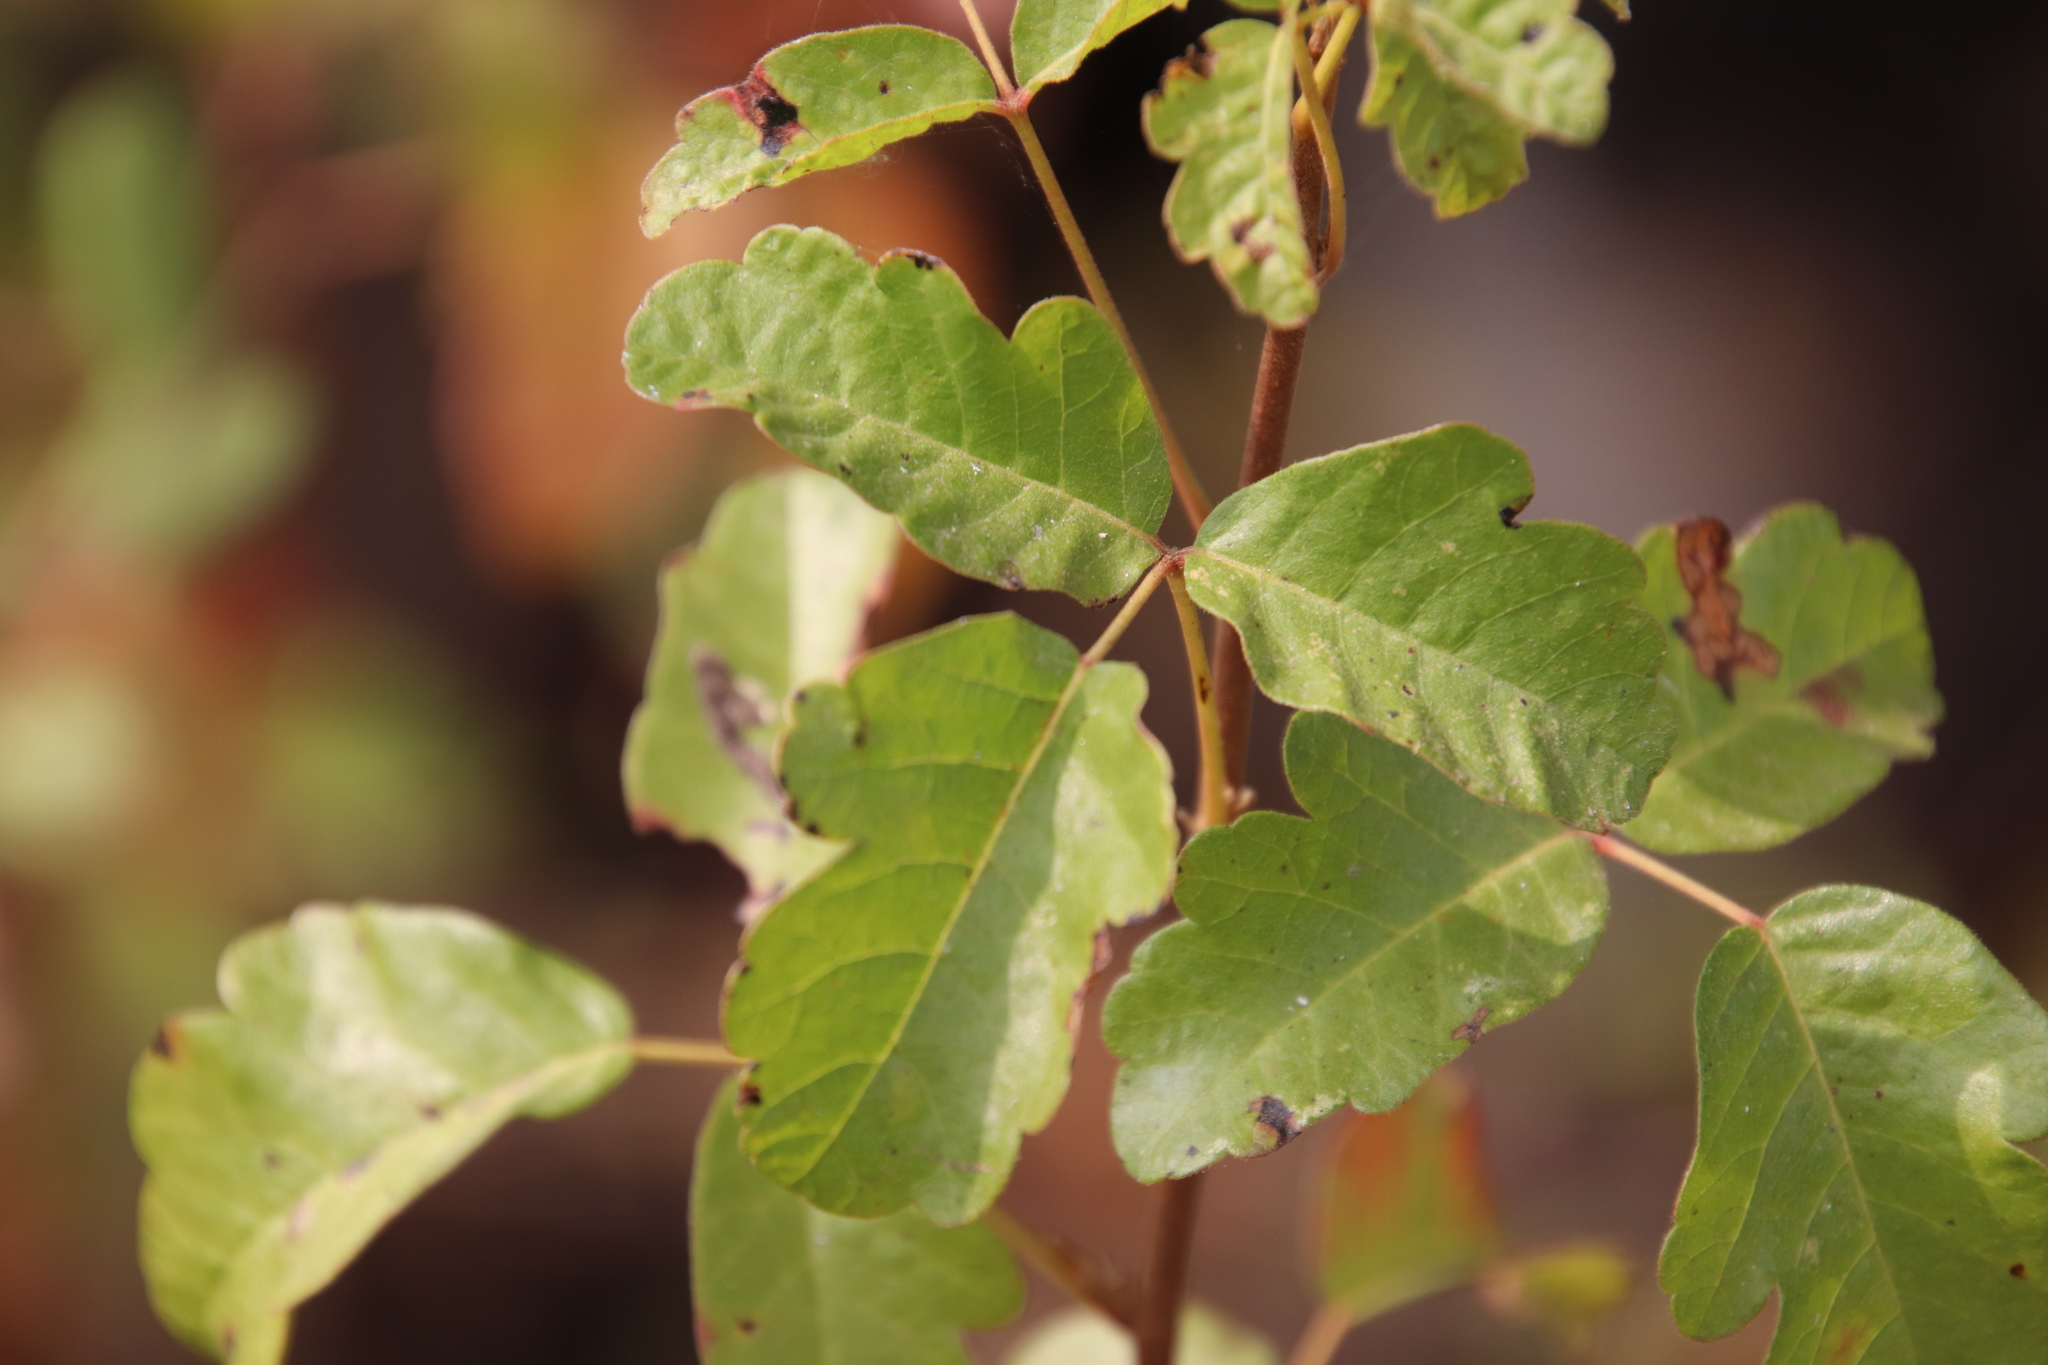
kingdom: Plantae
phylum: Tracheophyta
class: Magnoliopsida
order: Sapindales
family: Anacardiaceae
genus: Toxicodendron
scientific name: Toxicodendron diversilobum
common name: Pacific poison-oak
